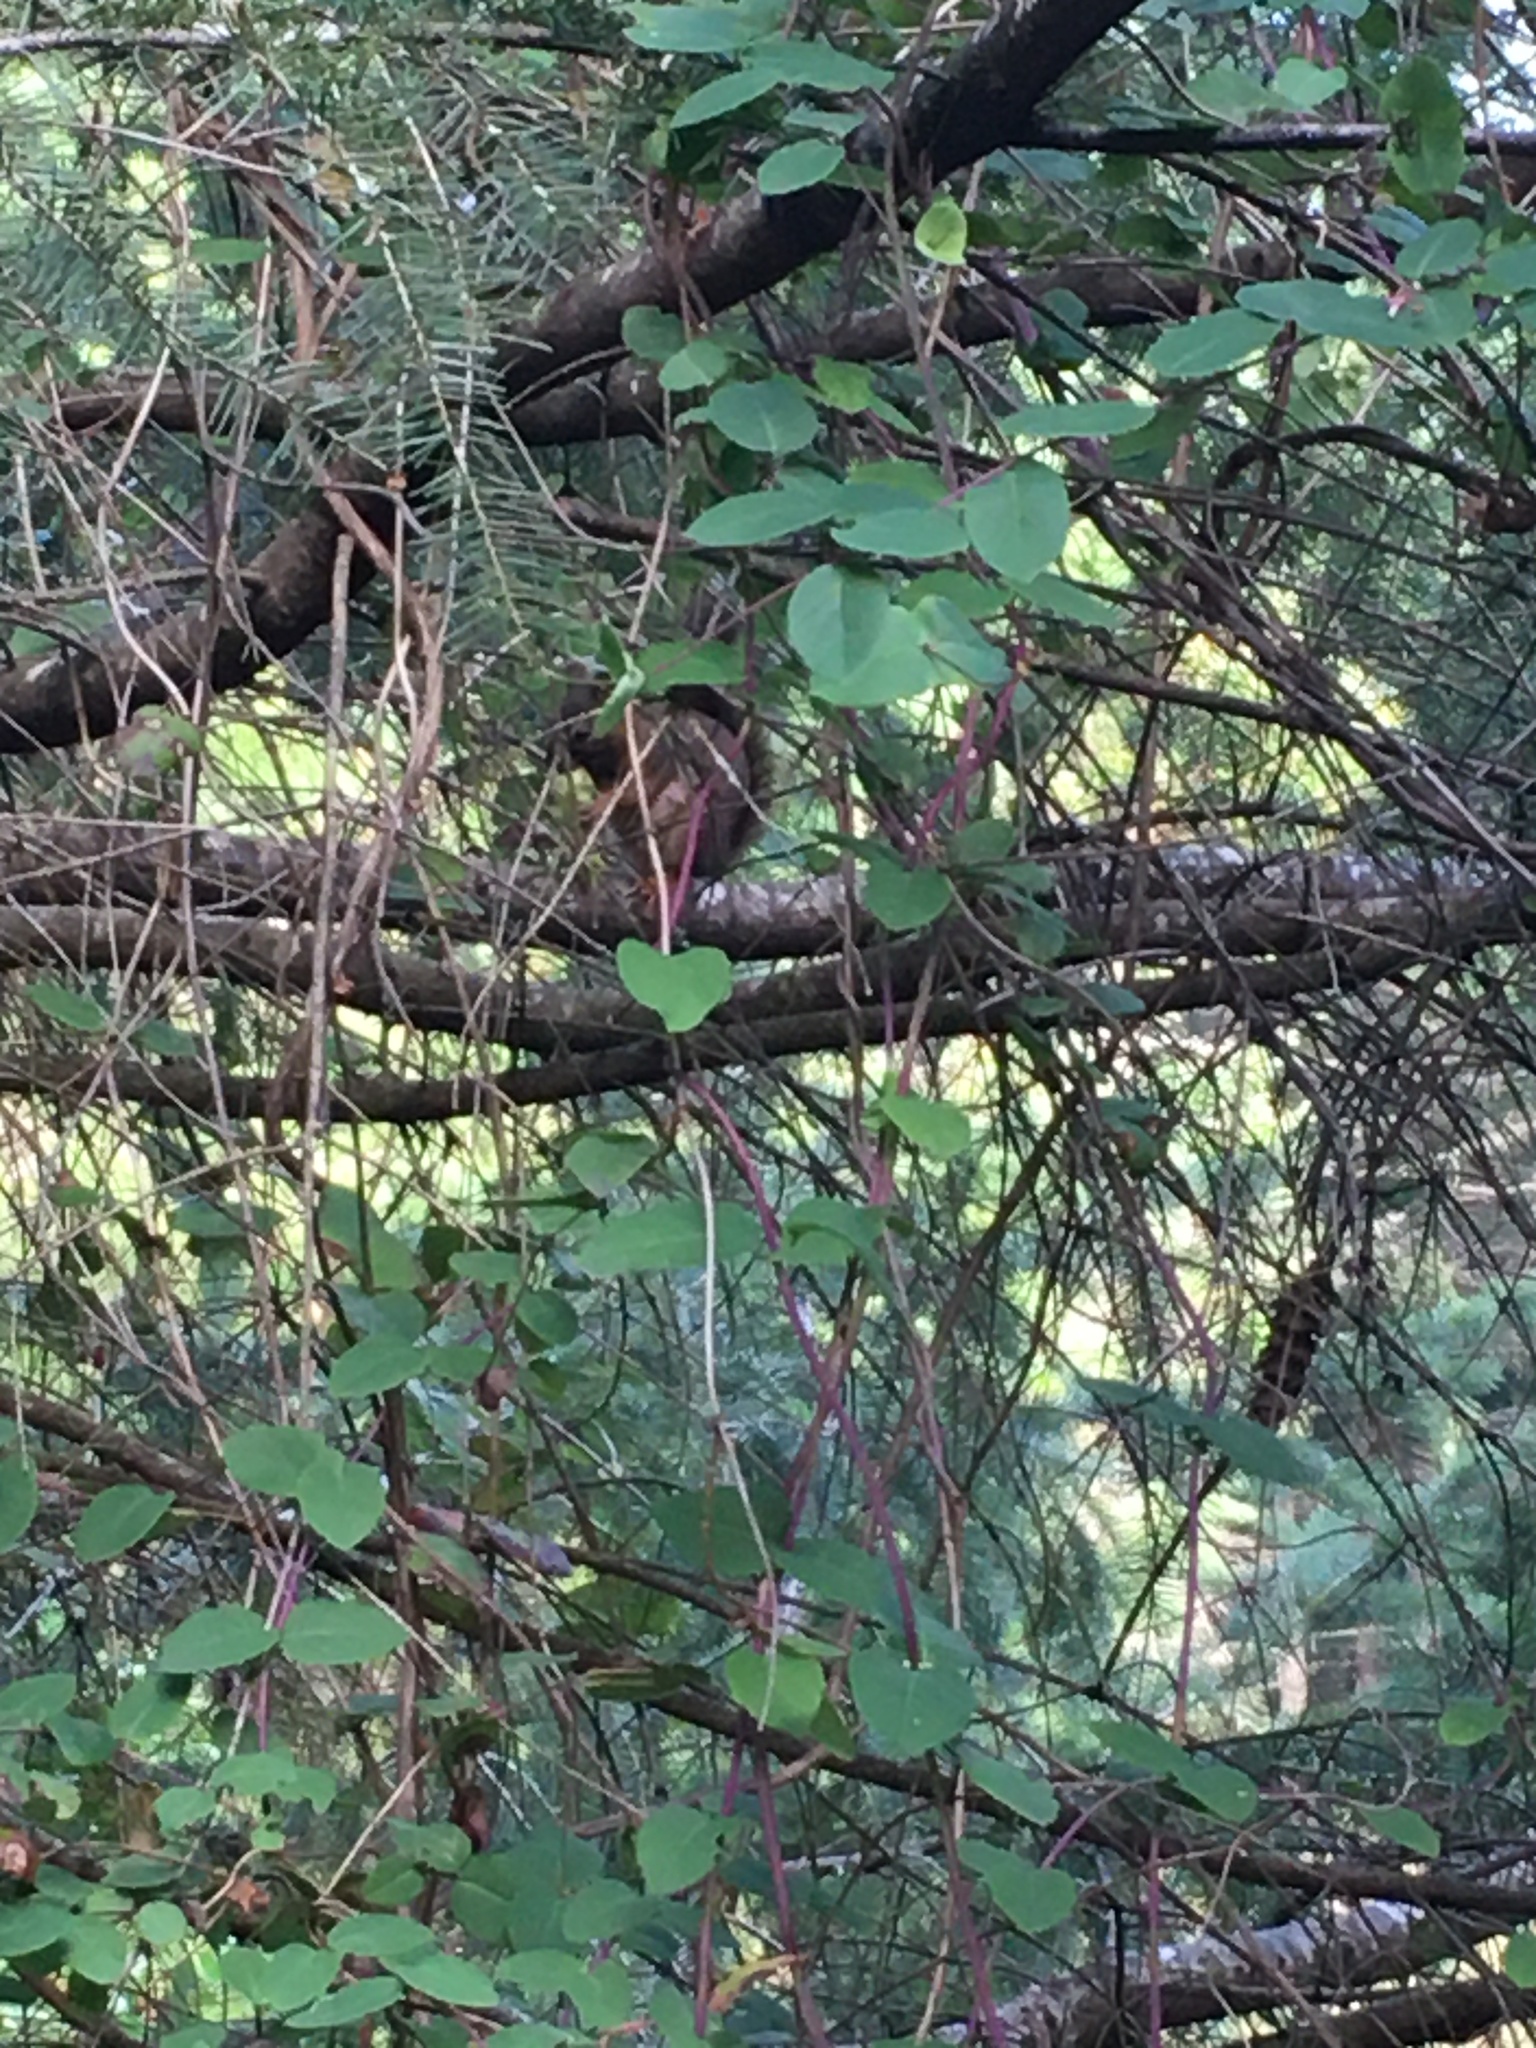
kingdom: Animalia
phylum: Chordata
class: Mammalia
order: Rodentia
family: Sciuridae
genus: Tamiasciurus
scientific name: Tamiasciurus hudsonicus
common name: Red squirrel
